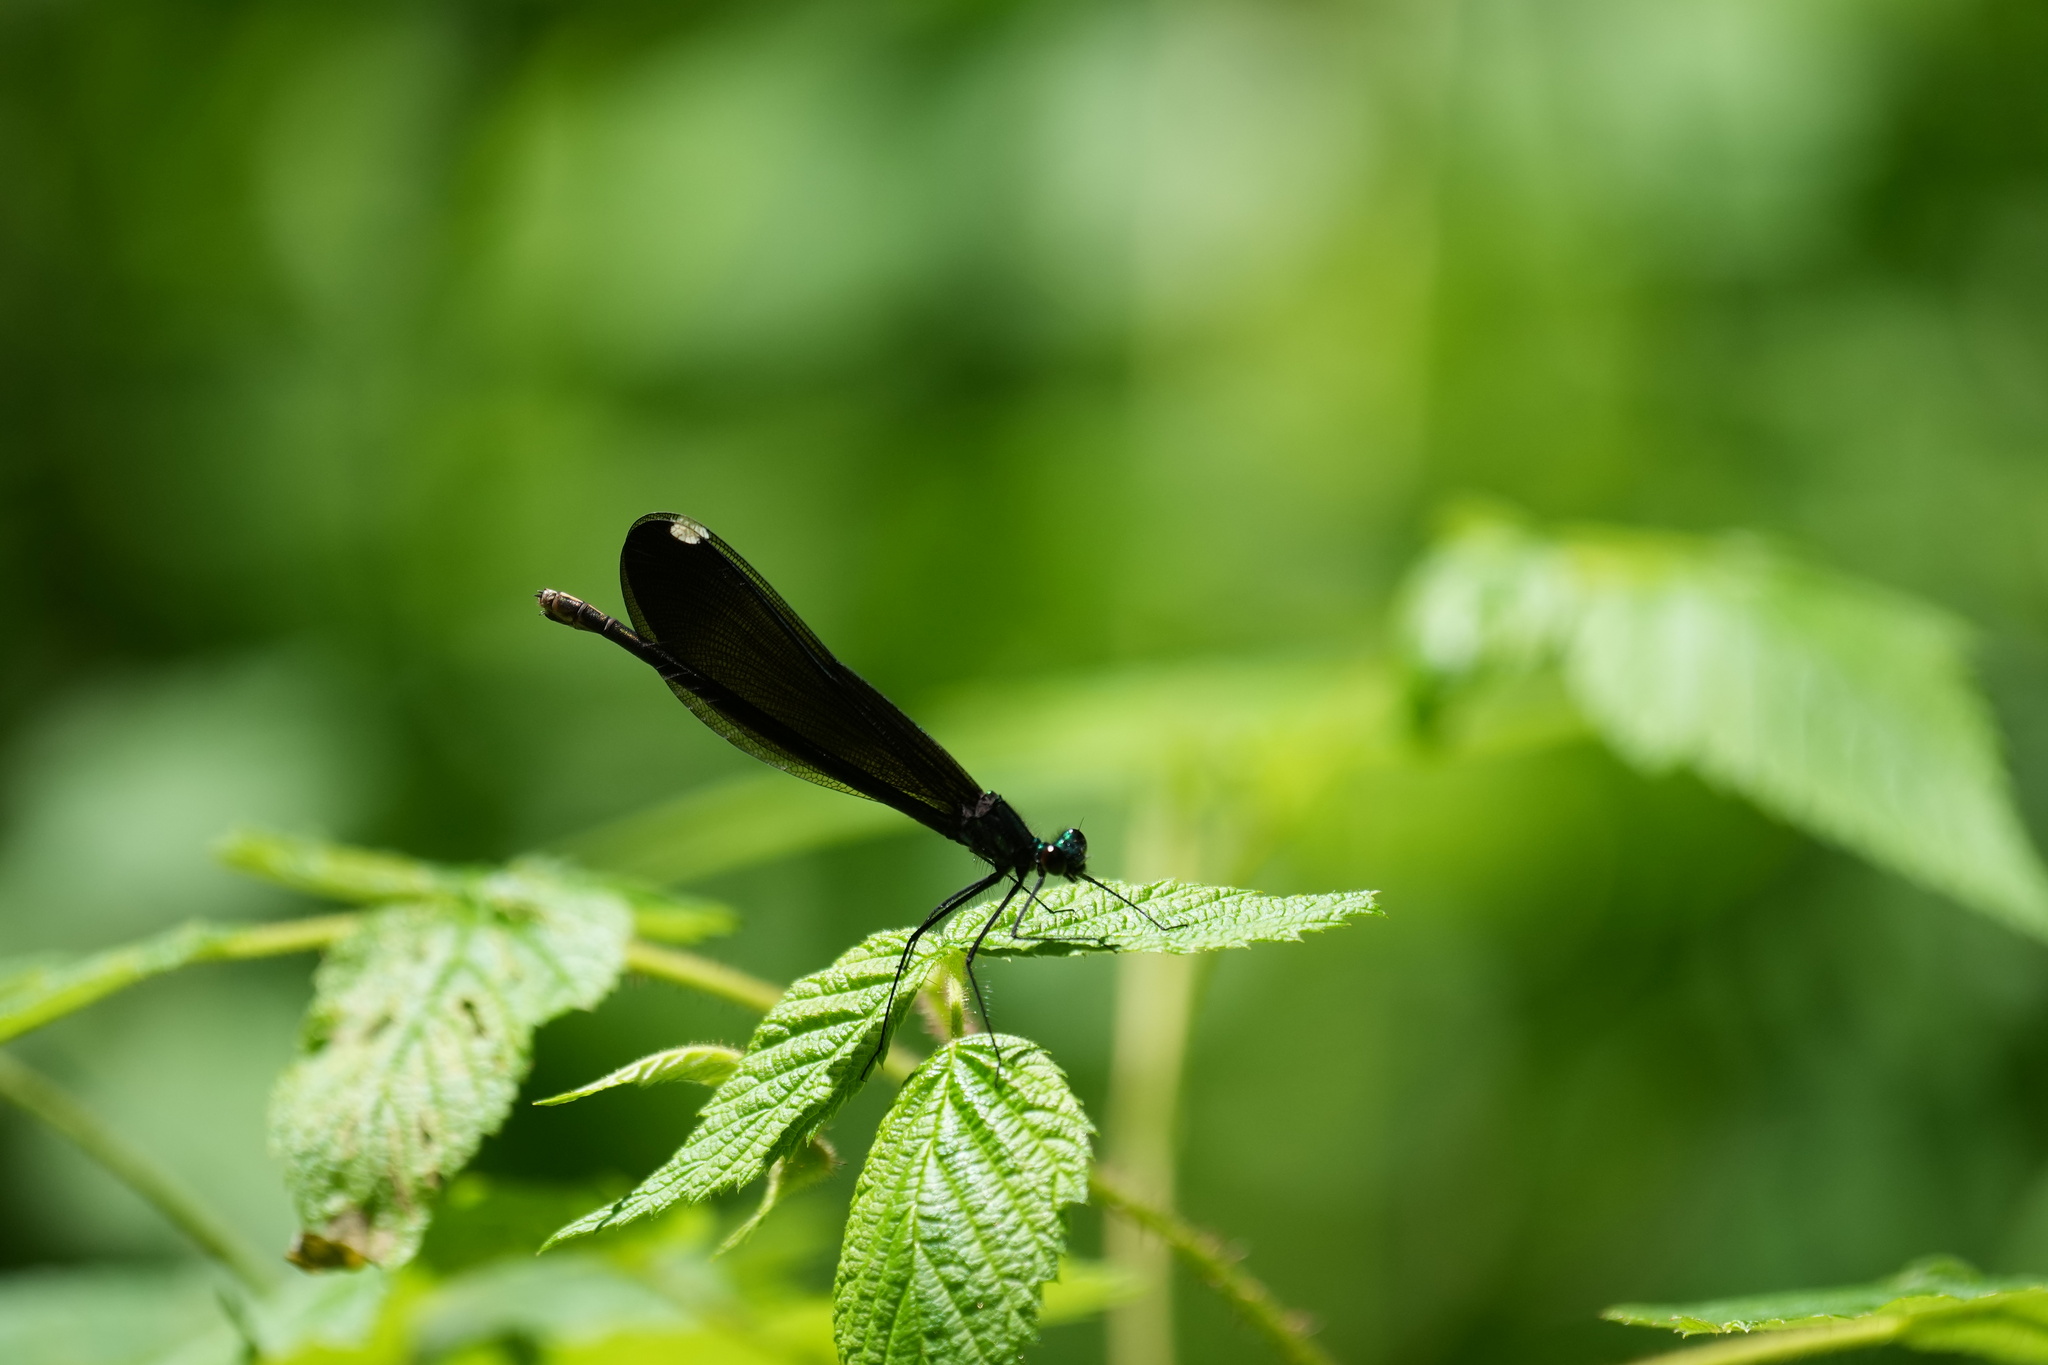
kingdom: Animalia
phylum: Arthropoda
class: Insecta
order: Odonata
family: Calopterygidae
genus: Calopteryx
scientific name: Calopteryx maculata
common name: Ebony jewelwing
